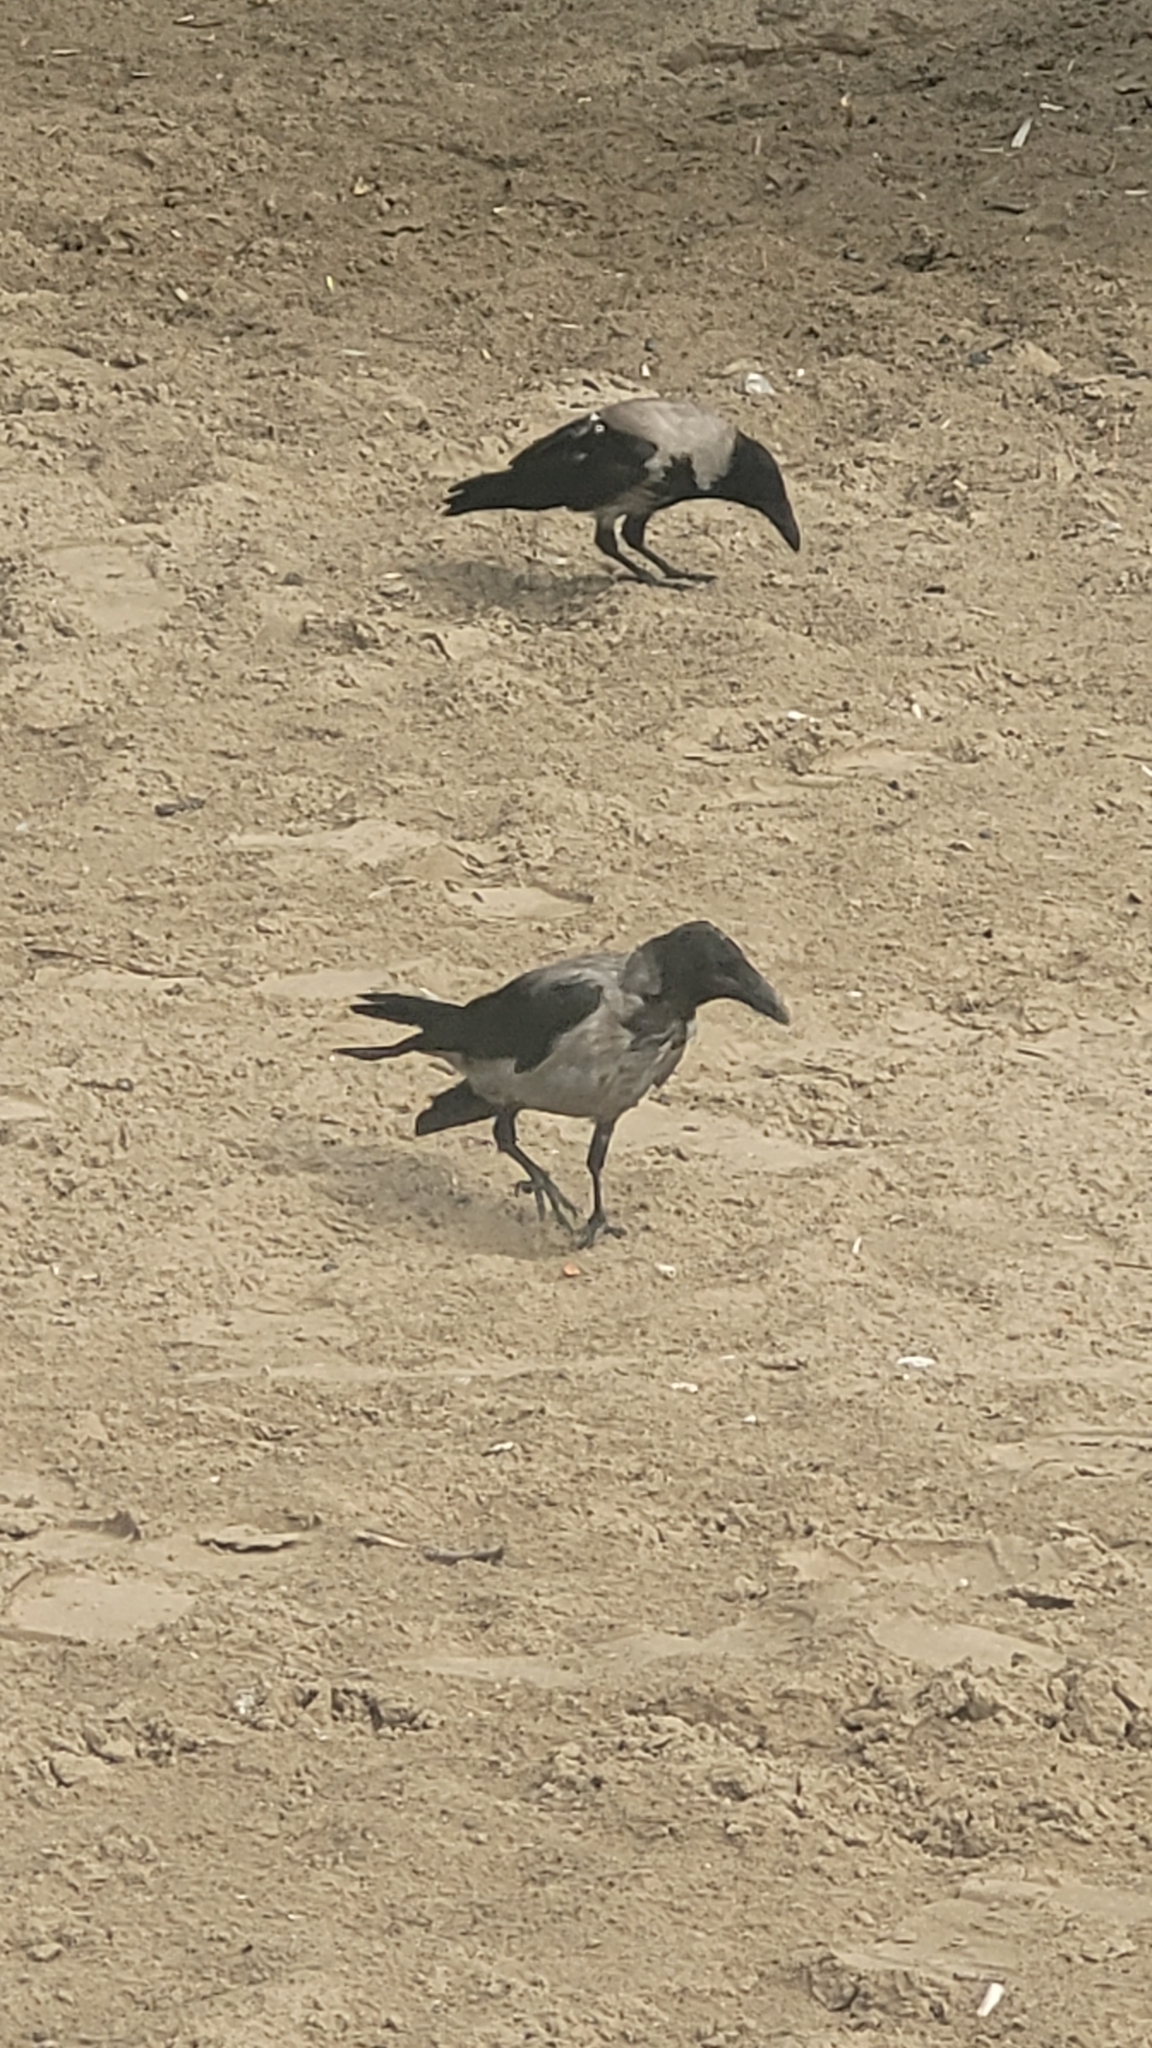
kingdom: Animalia
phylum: Chordata
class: Aves
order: Passeriformes
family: Corvidae
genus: Corvus
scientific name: Corvus cornix
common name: Hooded crow
